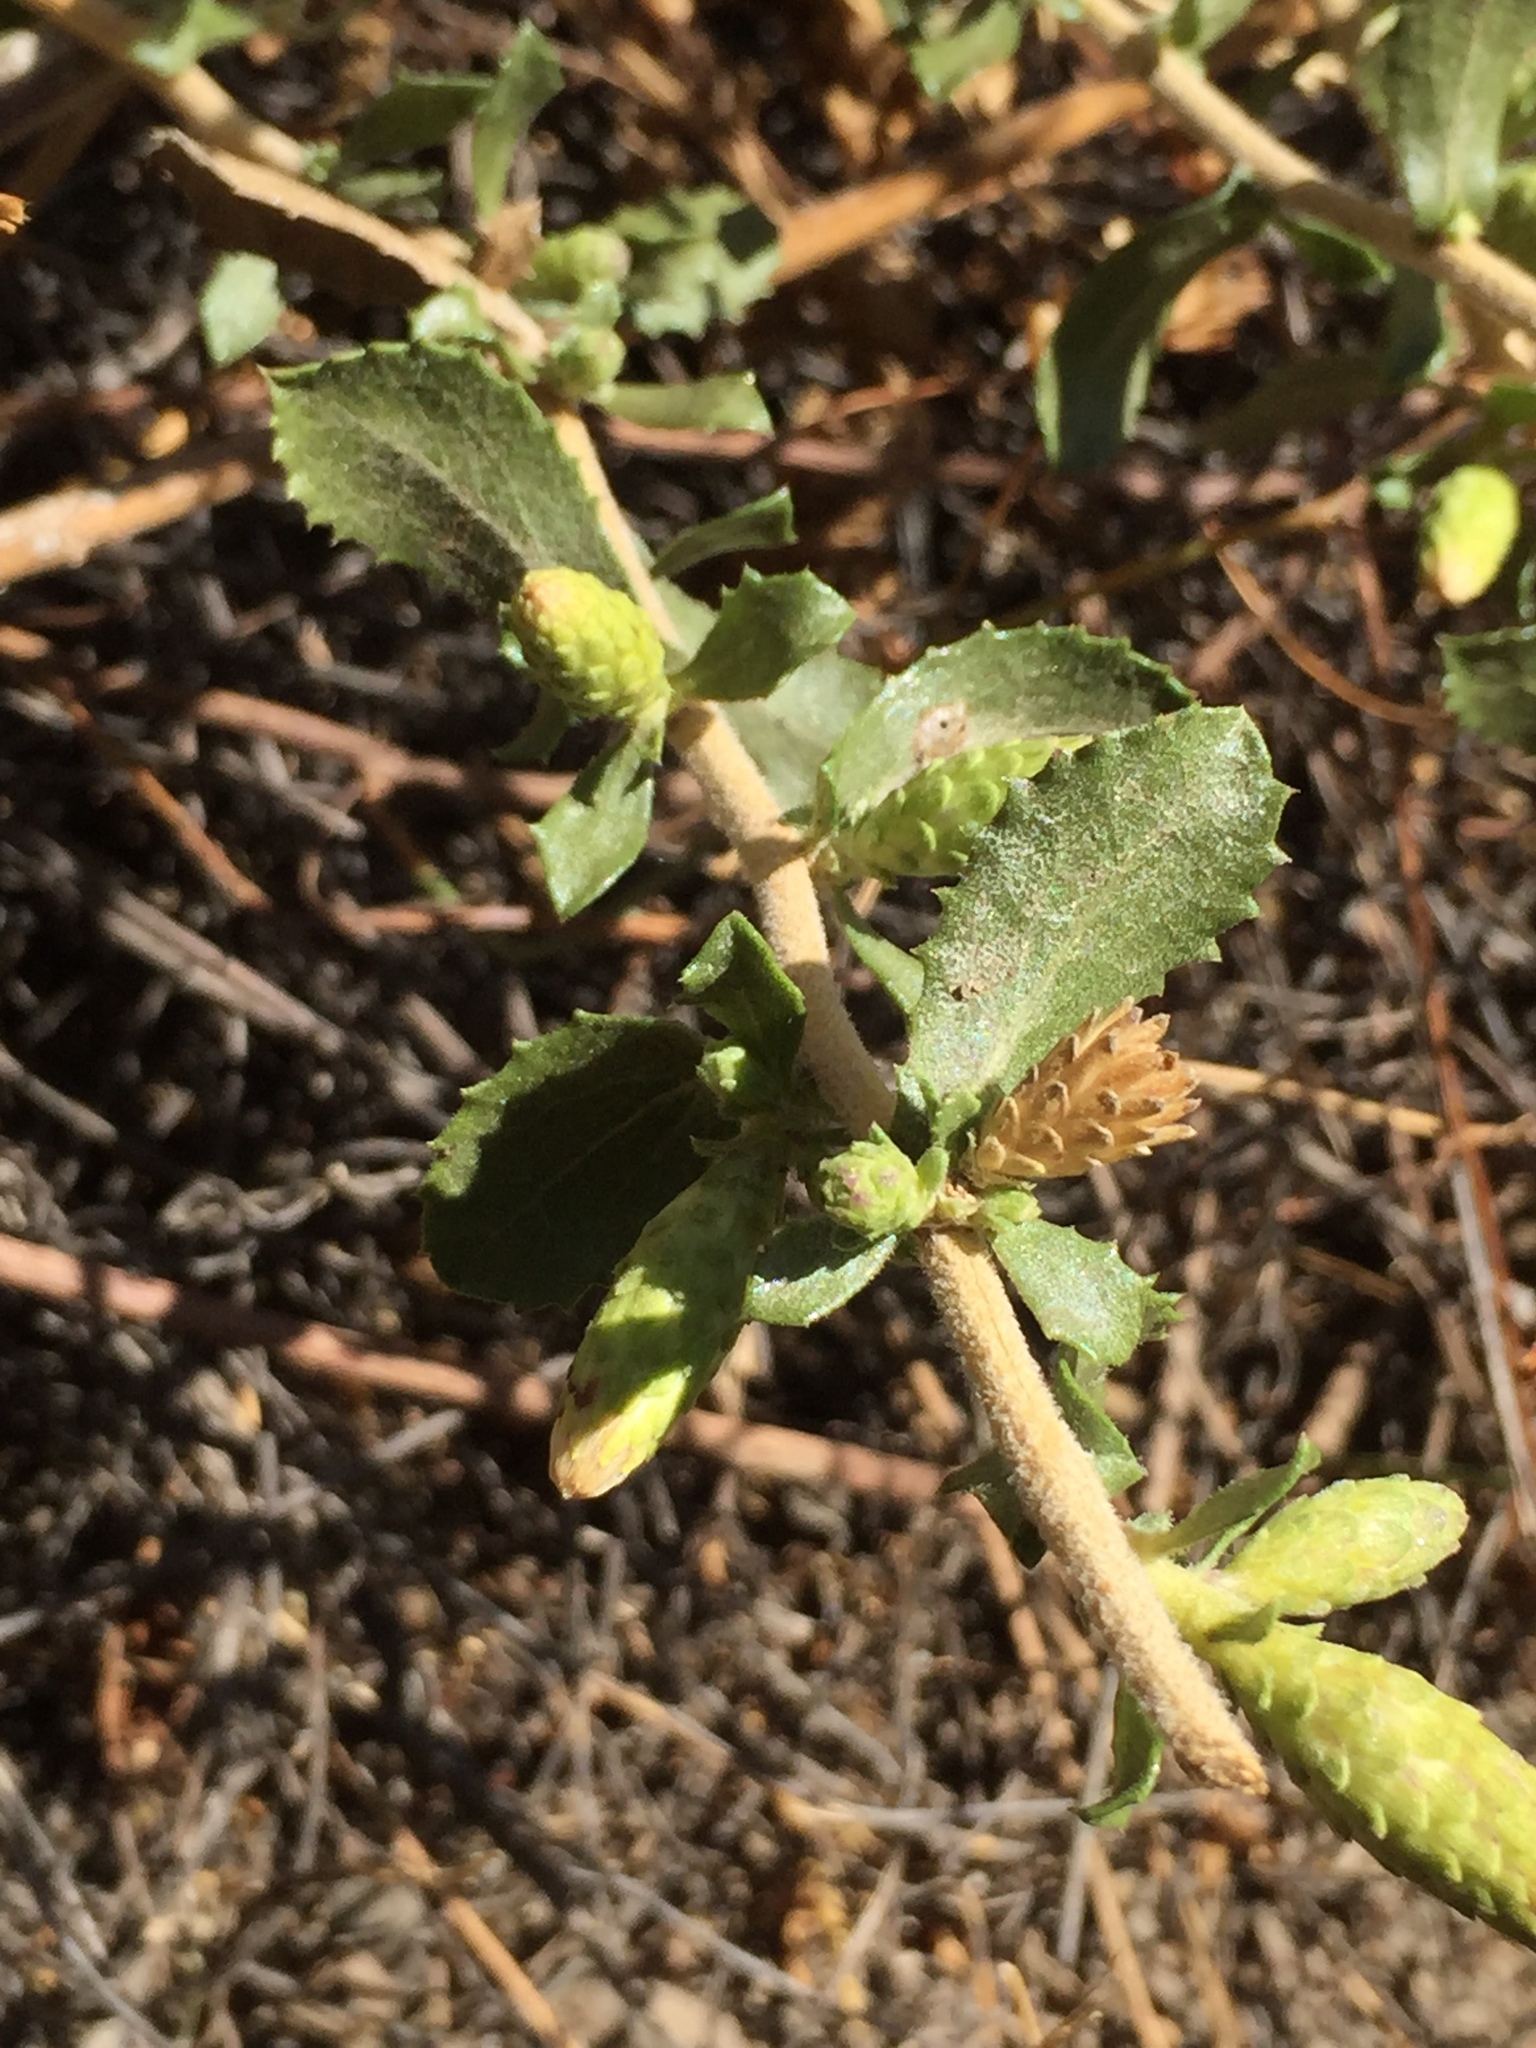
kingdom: Plantae
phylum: Tracheophyta
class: Magnoliopsida
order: Asterales
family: Asteraceae
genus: Hazardia
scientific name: Hazardia squarrosa
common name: Saw-tooth goldenbush
